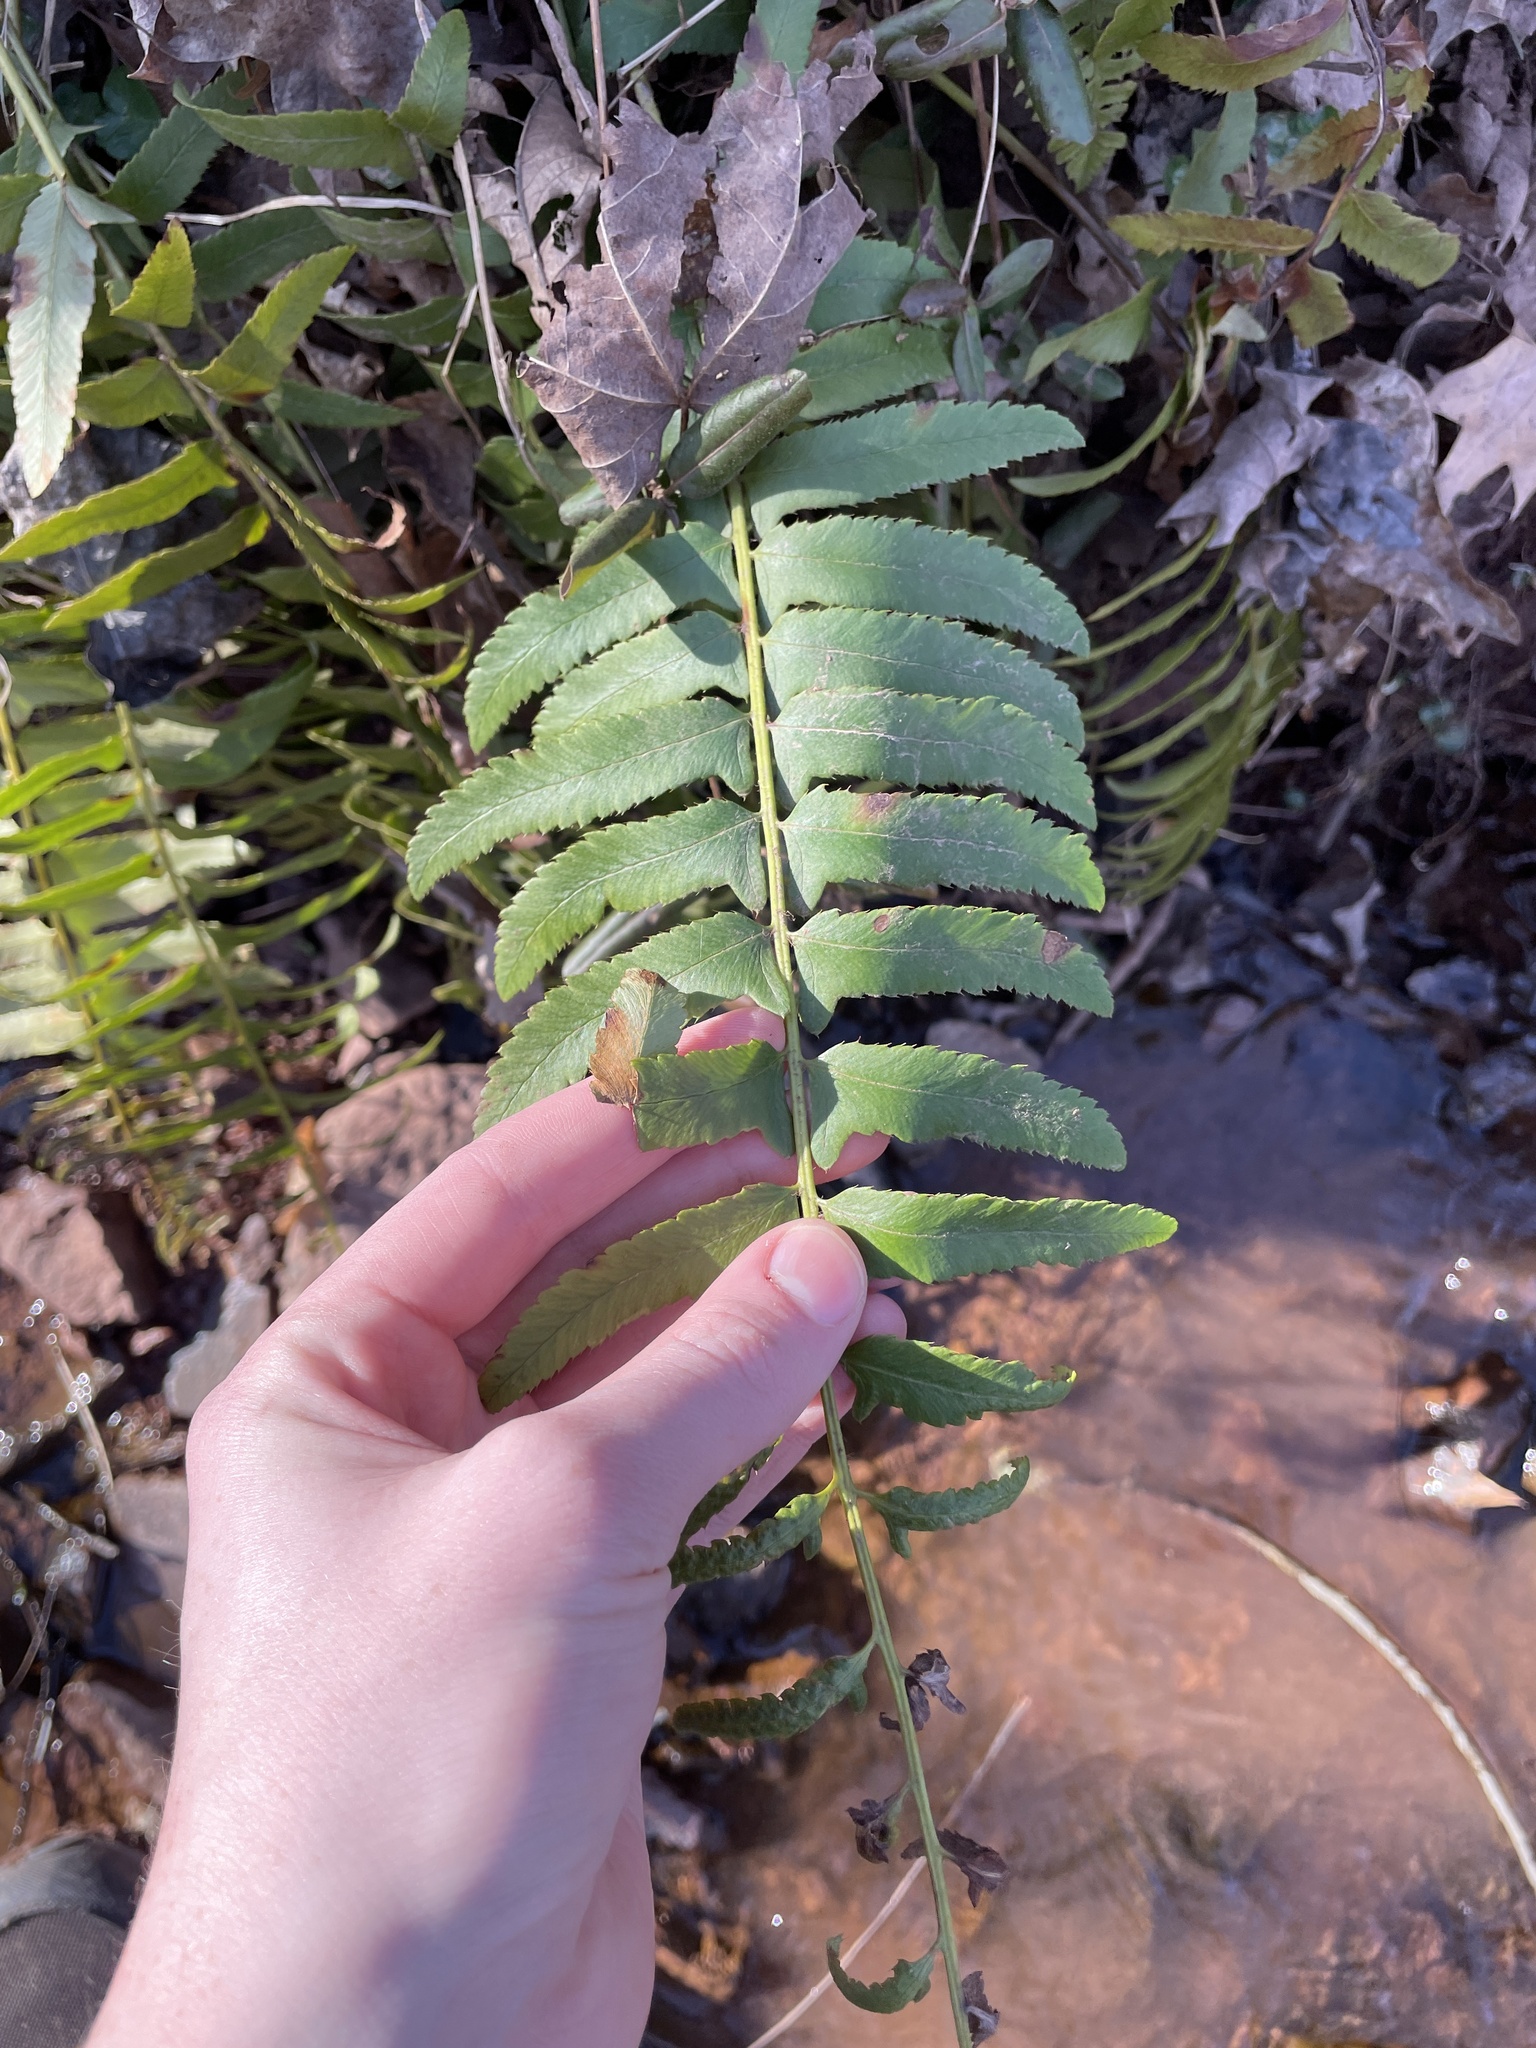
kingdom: Plantae
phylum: Tracheophyta
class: Polypodiopsida
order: Polypodiales
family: Dryopteridaceae
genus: Polystichum
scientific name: Polystichum acrostichoides
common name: Christmas fern
